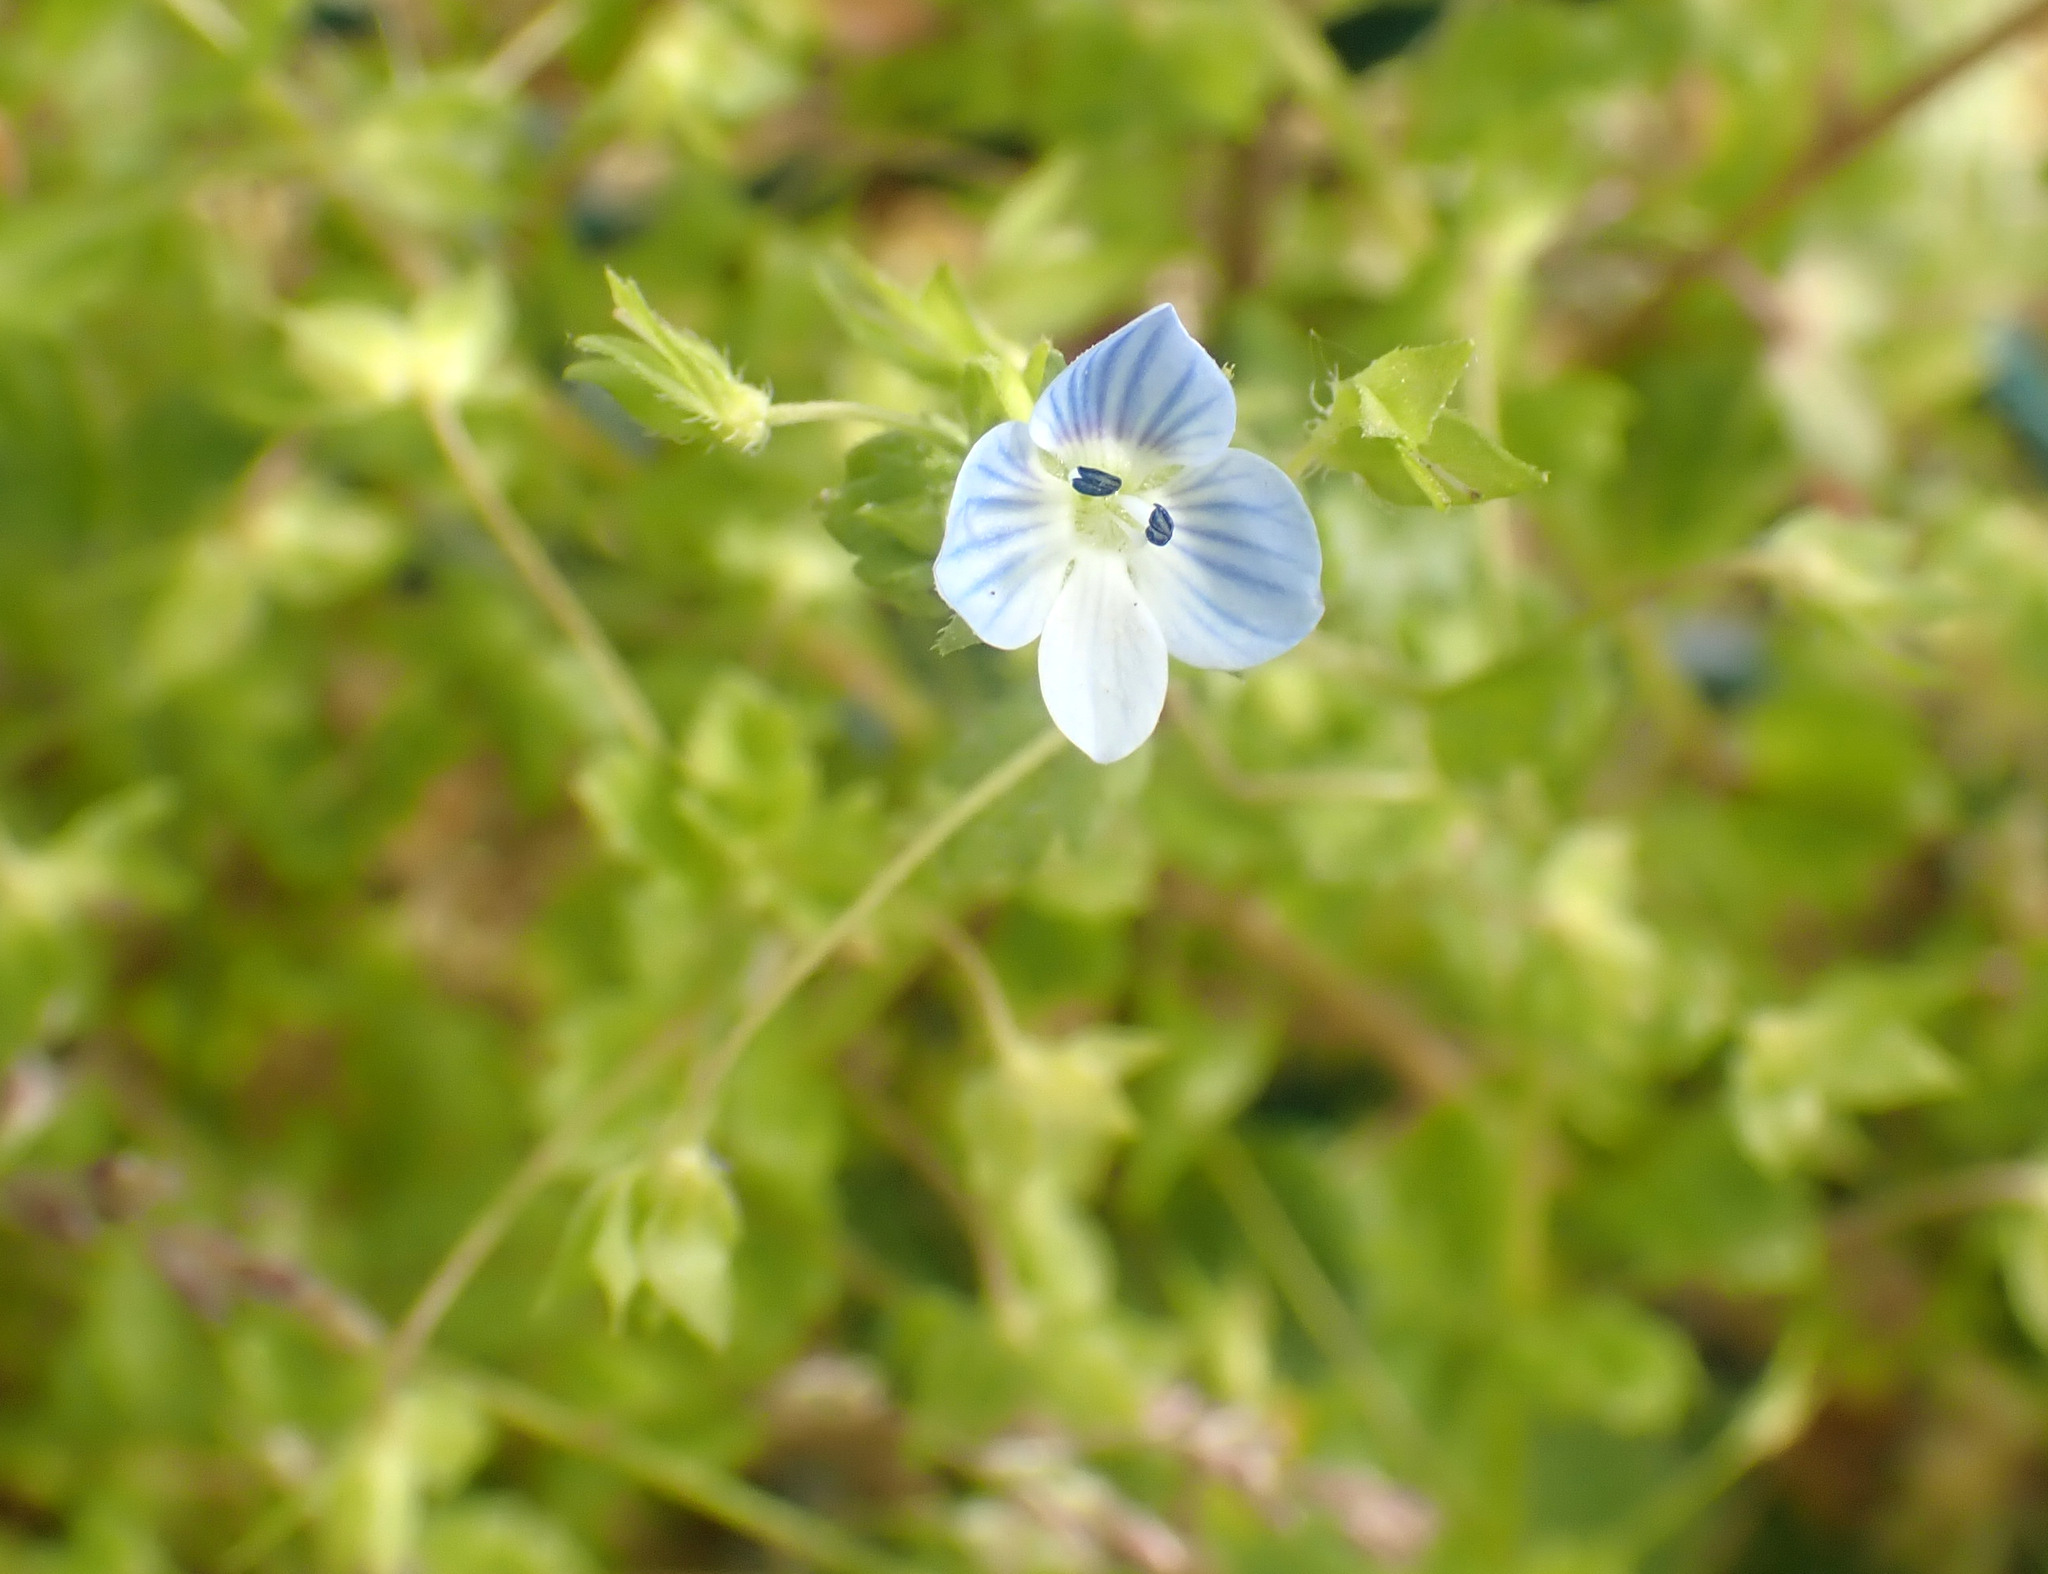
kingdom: Plantae
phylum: Tracheophyta
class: Magnoliopsida
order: Lamiales
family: Plantaginaceae
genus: Veronica
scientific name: Veronica persica
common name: Common field-speedwell
